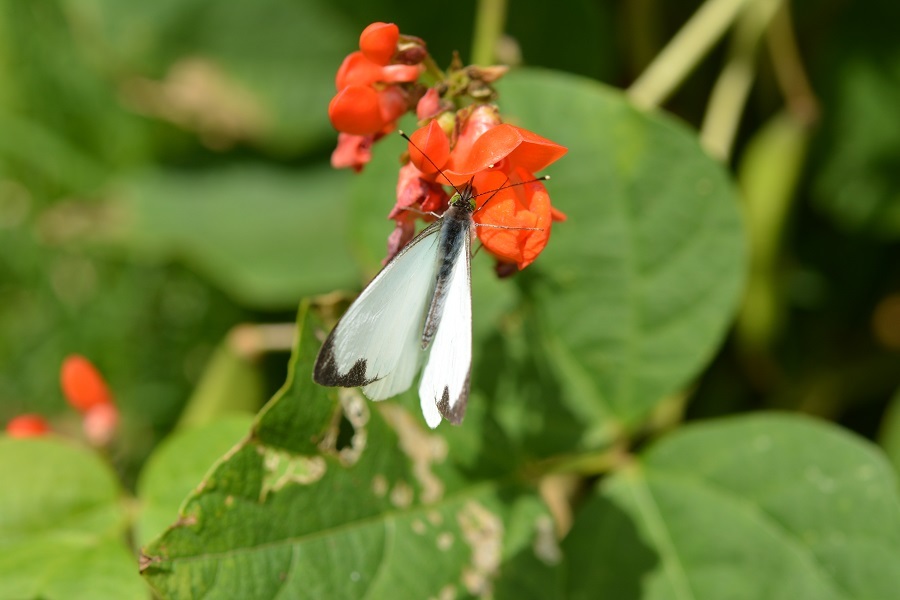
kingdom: Animalia
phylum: Arthropoda
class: Insecta
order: Lepidoptera
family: Pieridae
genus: Leptophobia
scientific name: Leptophobia aripa
